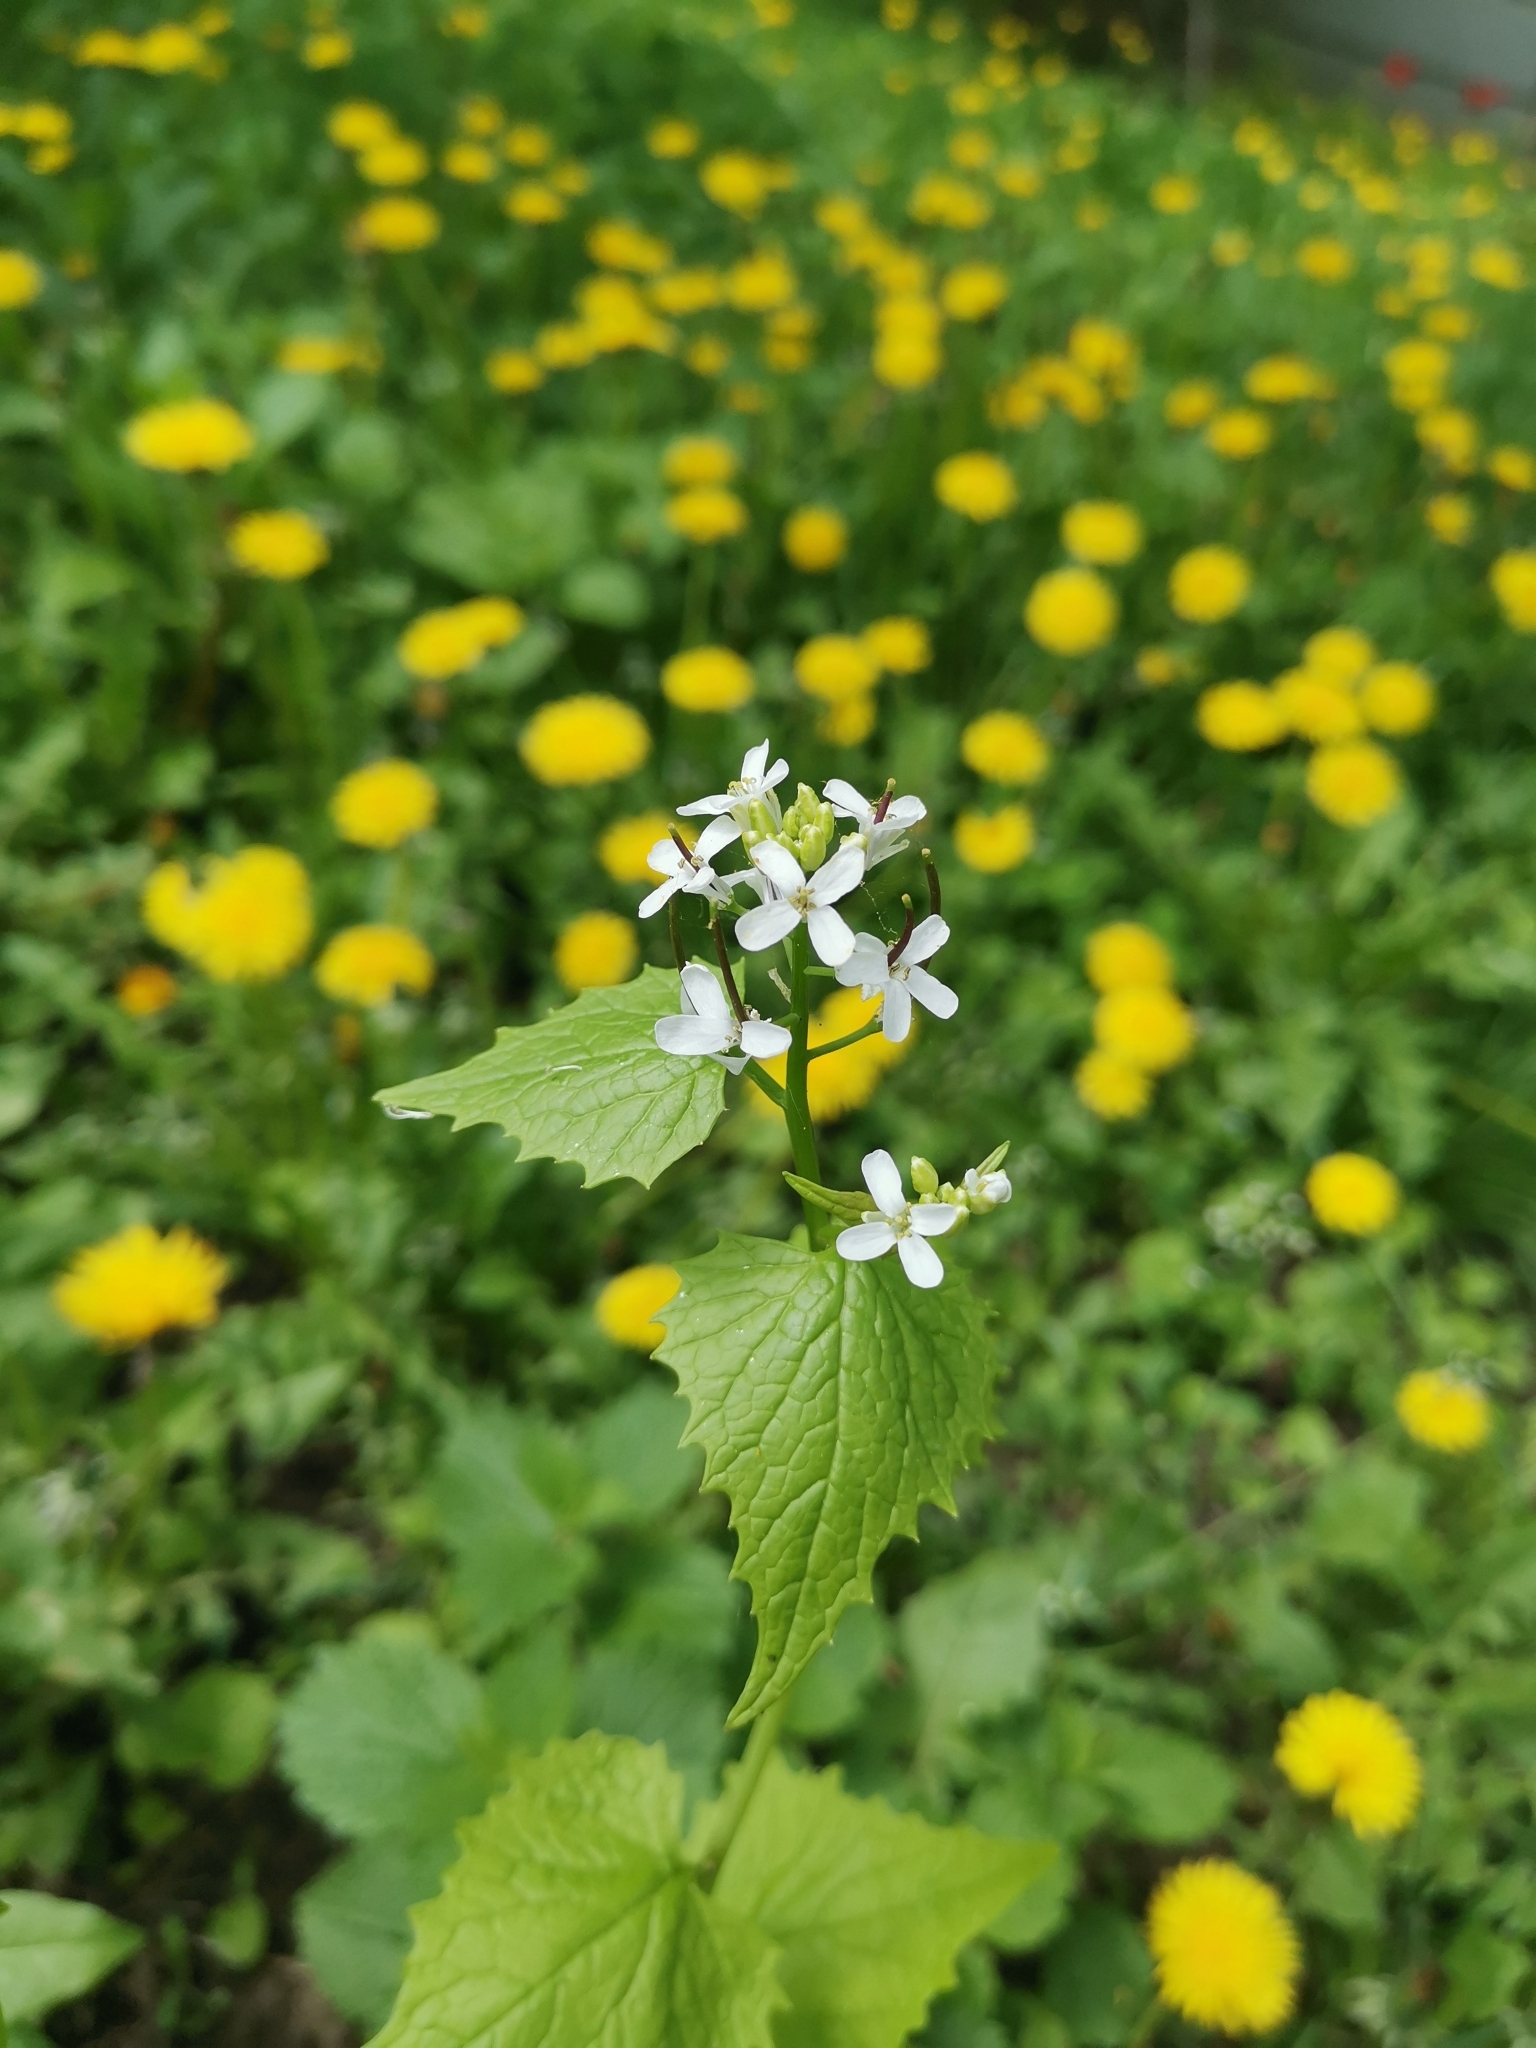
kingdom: Plantae
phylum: Tracheophyta
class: Magnoliopsida
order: Brassicales
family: Brassicaceae
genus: Alliaria
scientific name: Alliaria petiolata
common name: Garlic mustard
